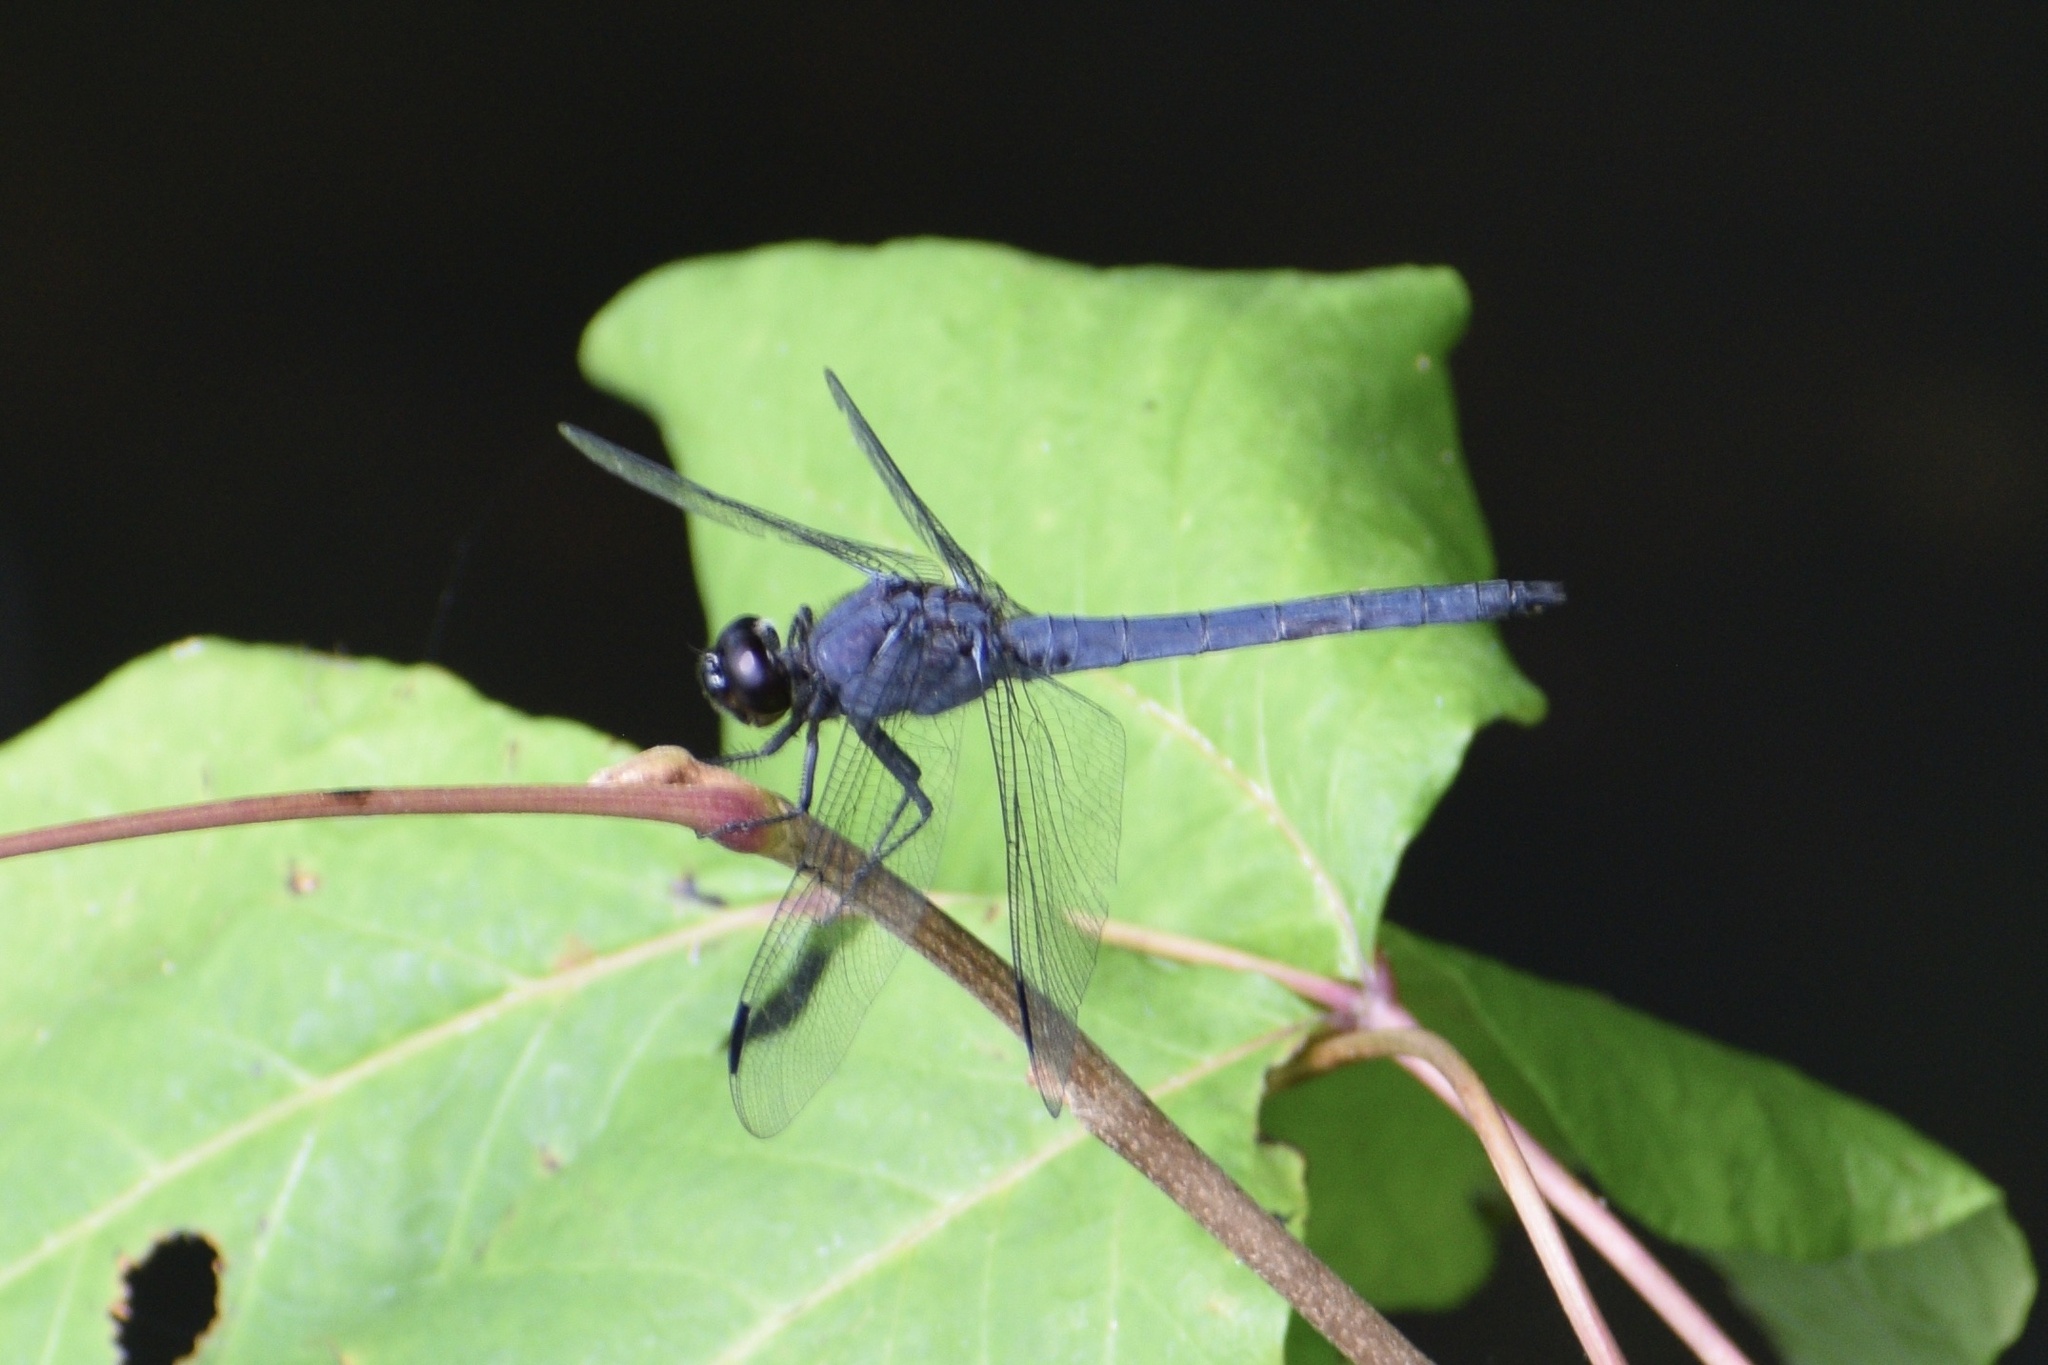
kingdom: Animalia
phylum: Arthropoda
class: Insecta
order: Odonata
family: Libellulidae
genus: Libellula
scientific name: Libellula incesta
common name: Slaty skimmer
